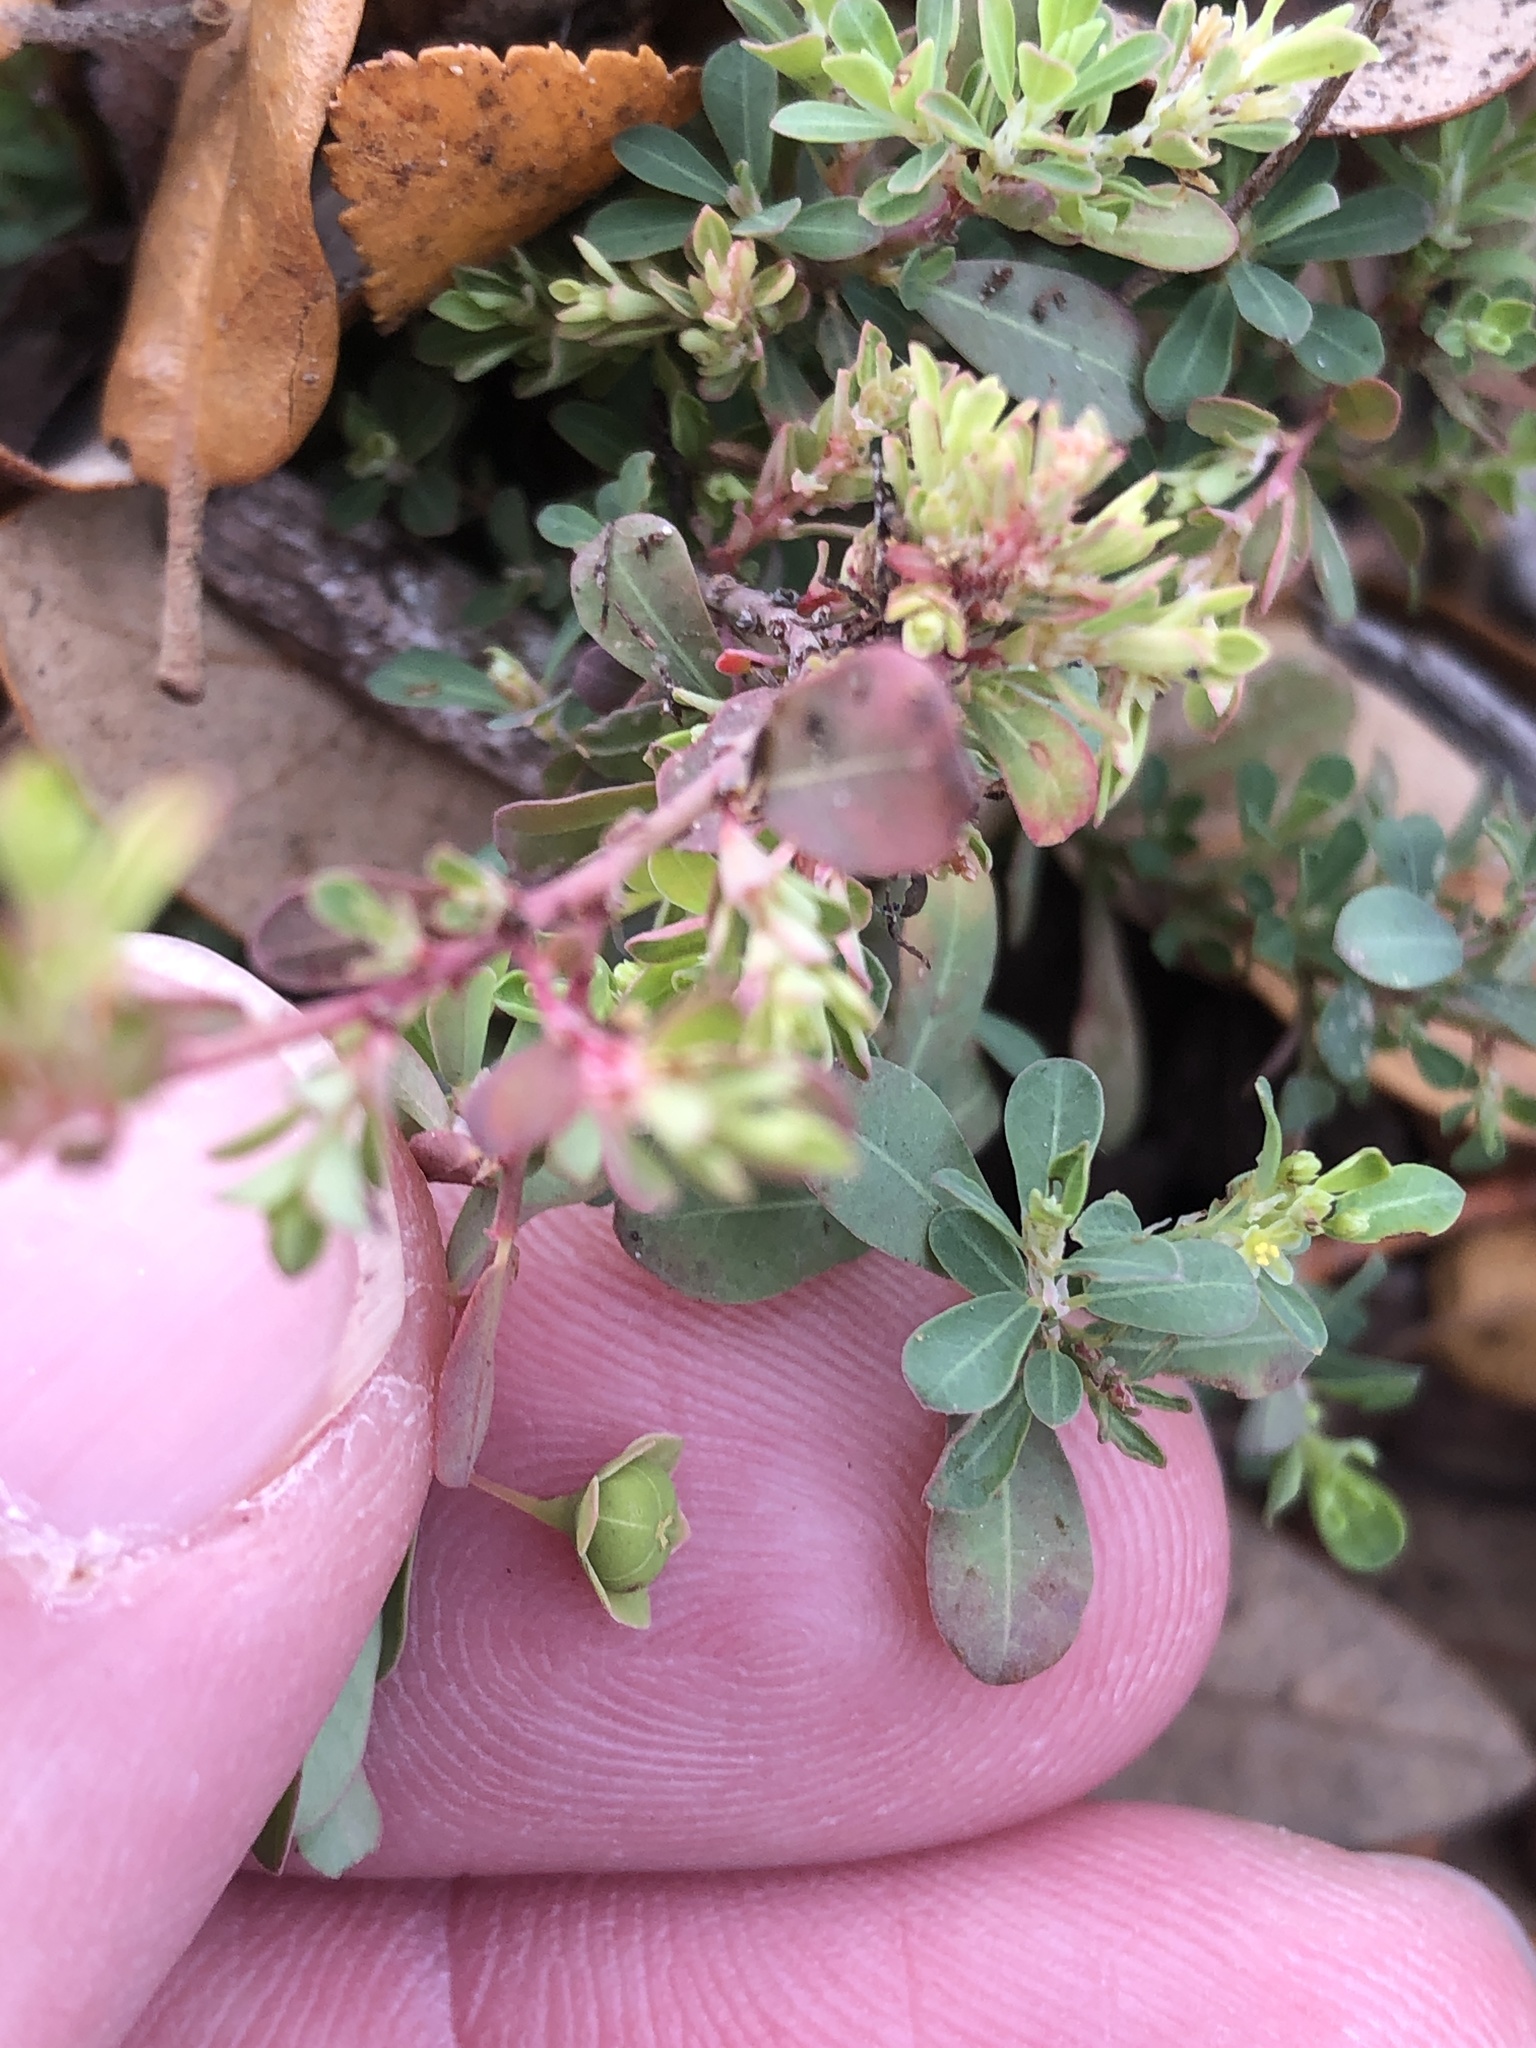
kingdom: Plantae
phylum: Tracheophyta
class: Magnoliopsida
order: Malpighiales
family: Phyllanthaceae
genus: Phyllanthus
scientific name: Phyllanthus polygonoides
